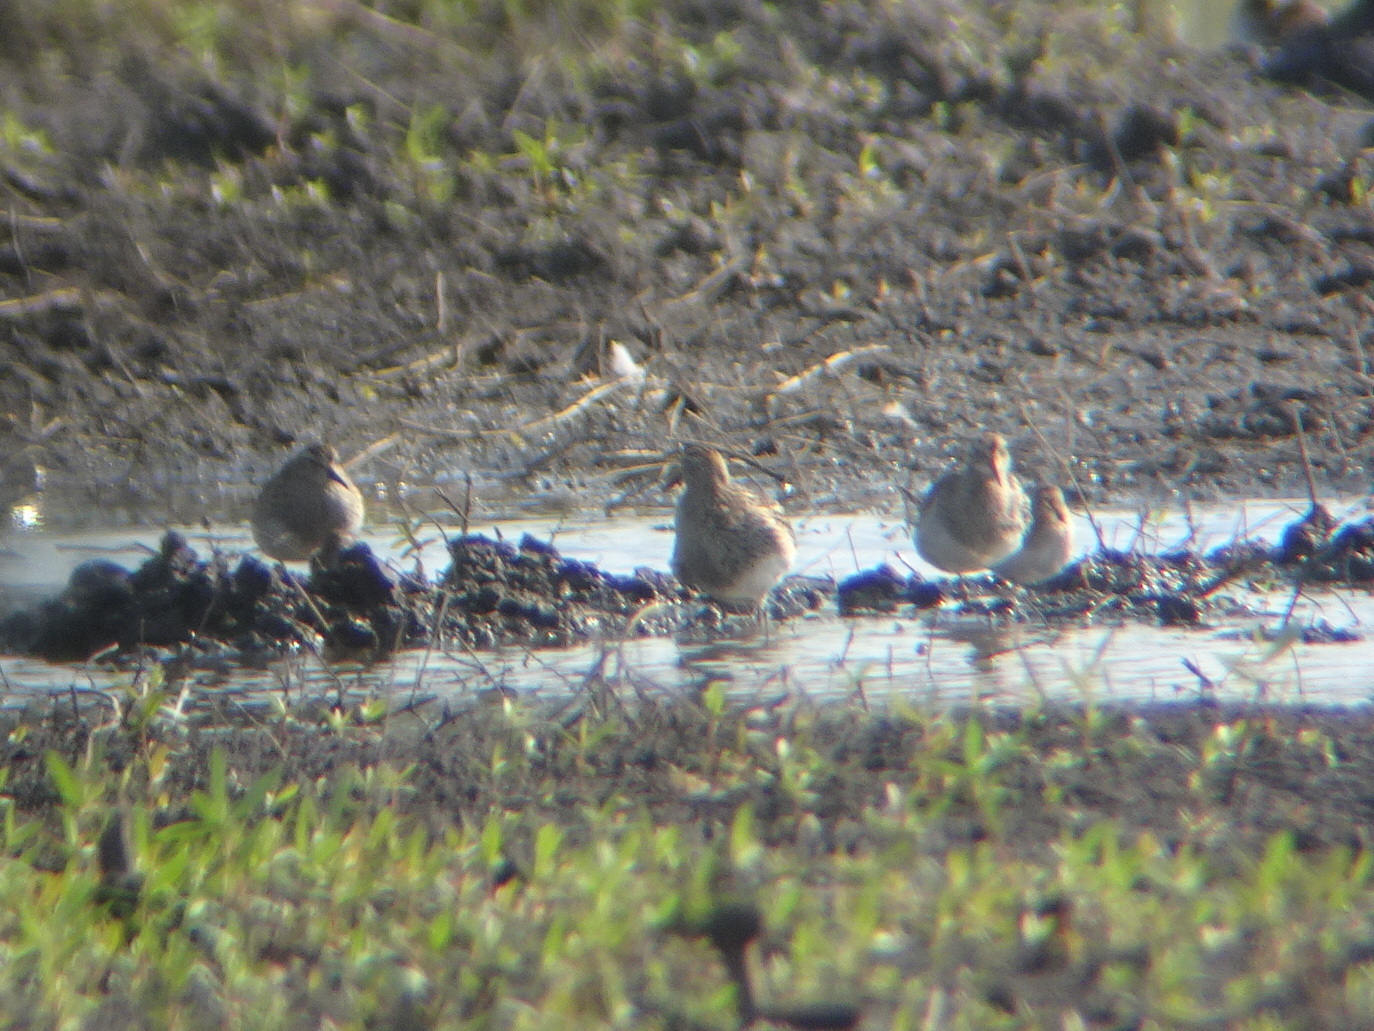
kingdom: Animalia
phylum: Chordata
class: Aves
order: Charadriiformes
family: Scolopacidae
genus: Calidris
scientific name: Calidris melanotos
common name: Pectoral sandpiper
